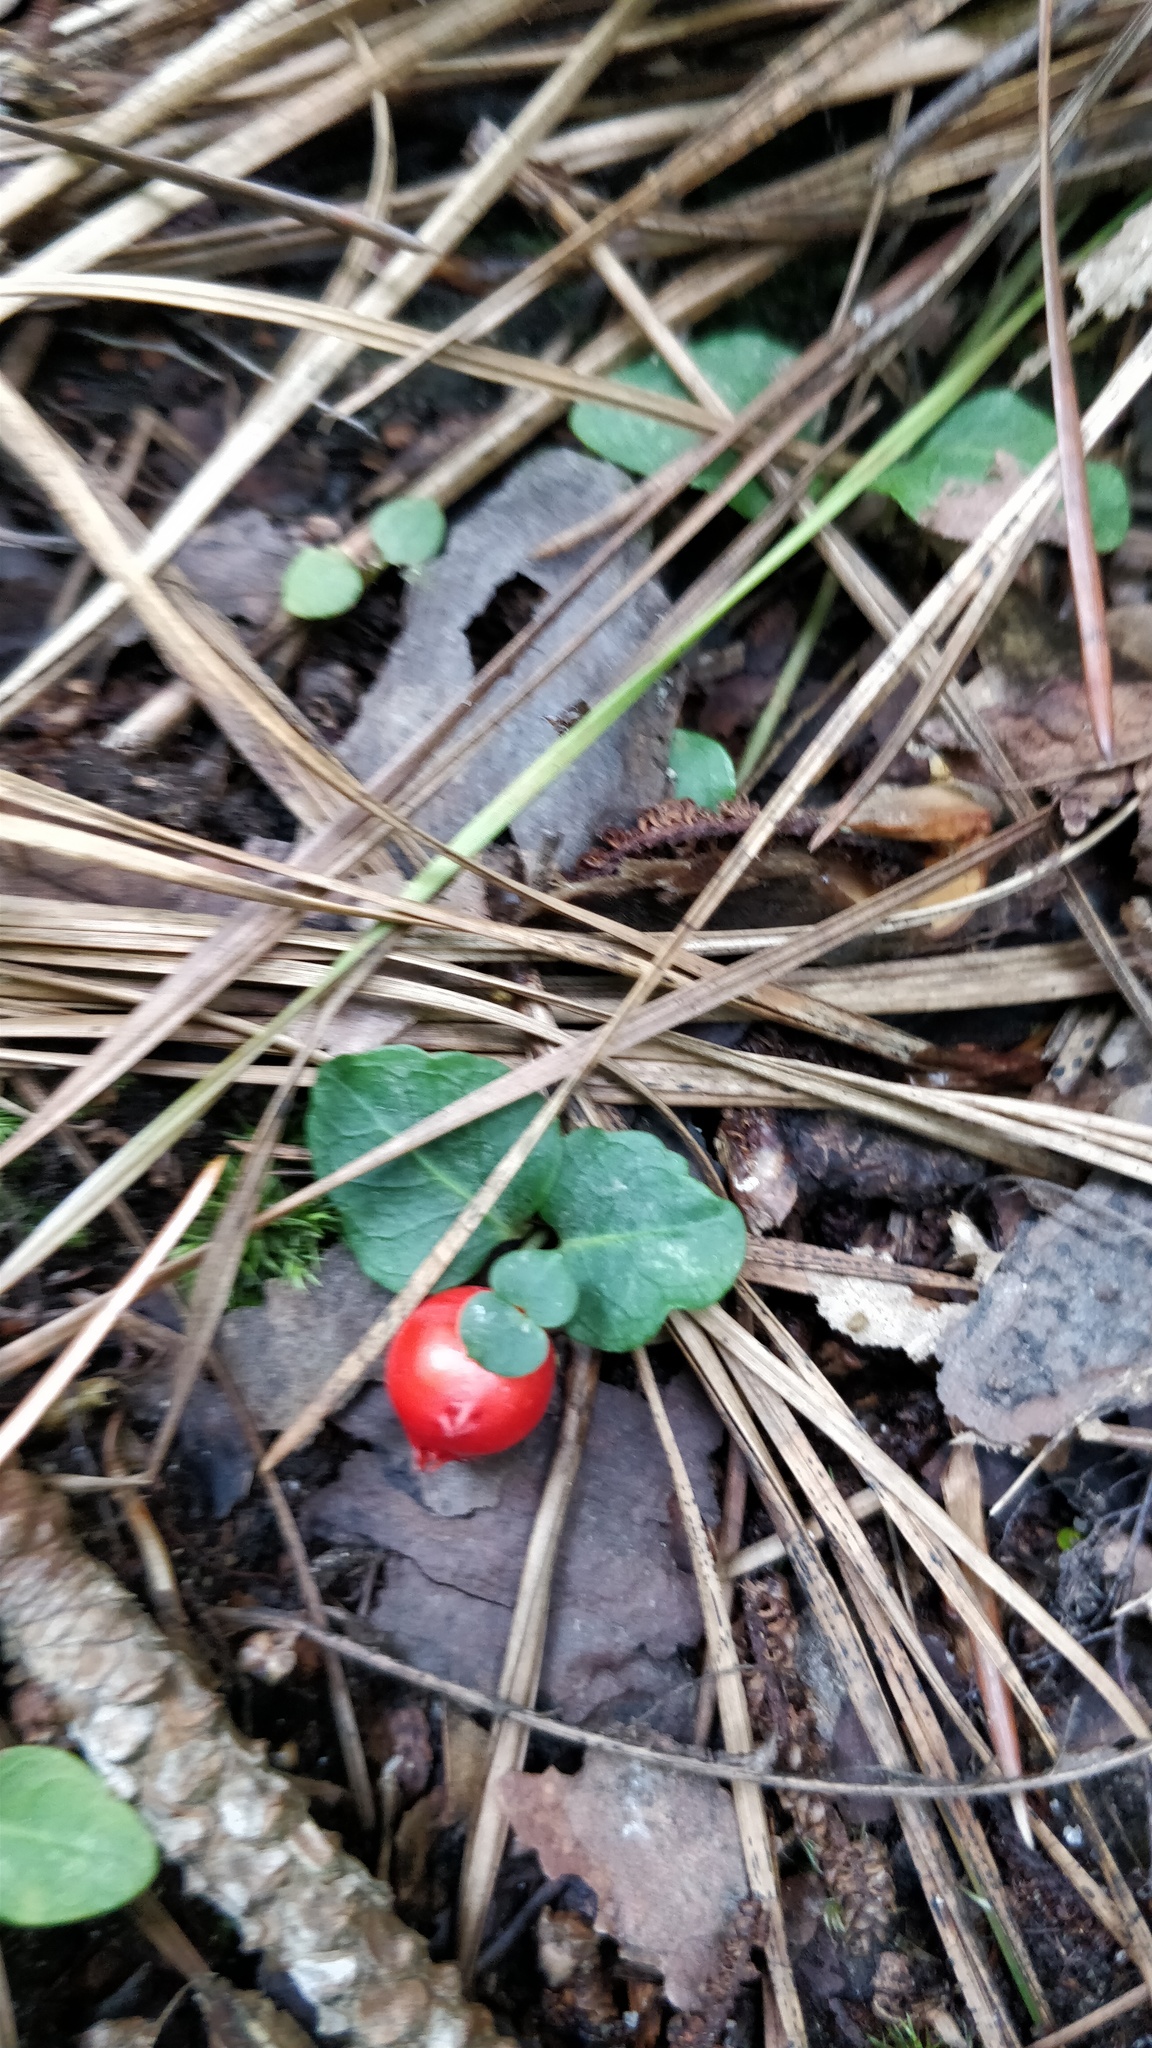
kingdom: Plantae
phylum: Tracheophyta
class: Magnoliopsida
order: Gentianales
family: Rubiaceae
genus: Mitchella
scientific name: Mitchella repens
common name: Partridge-berry
